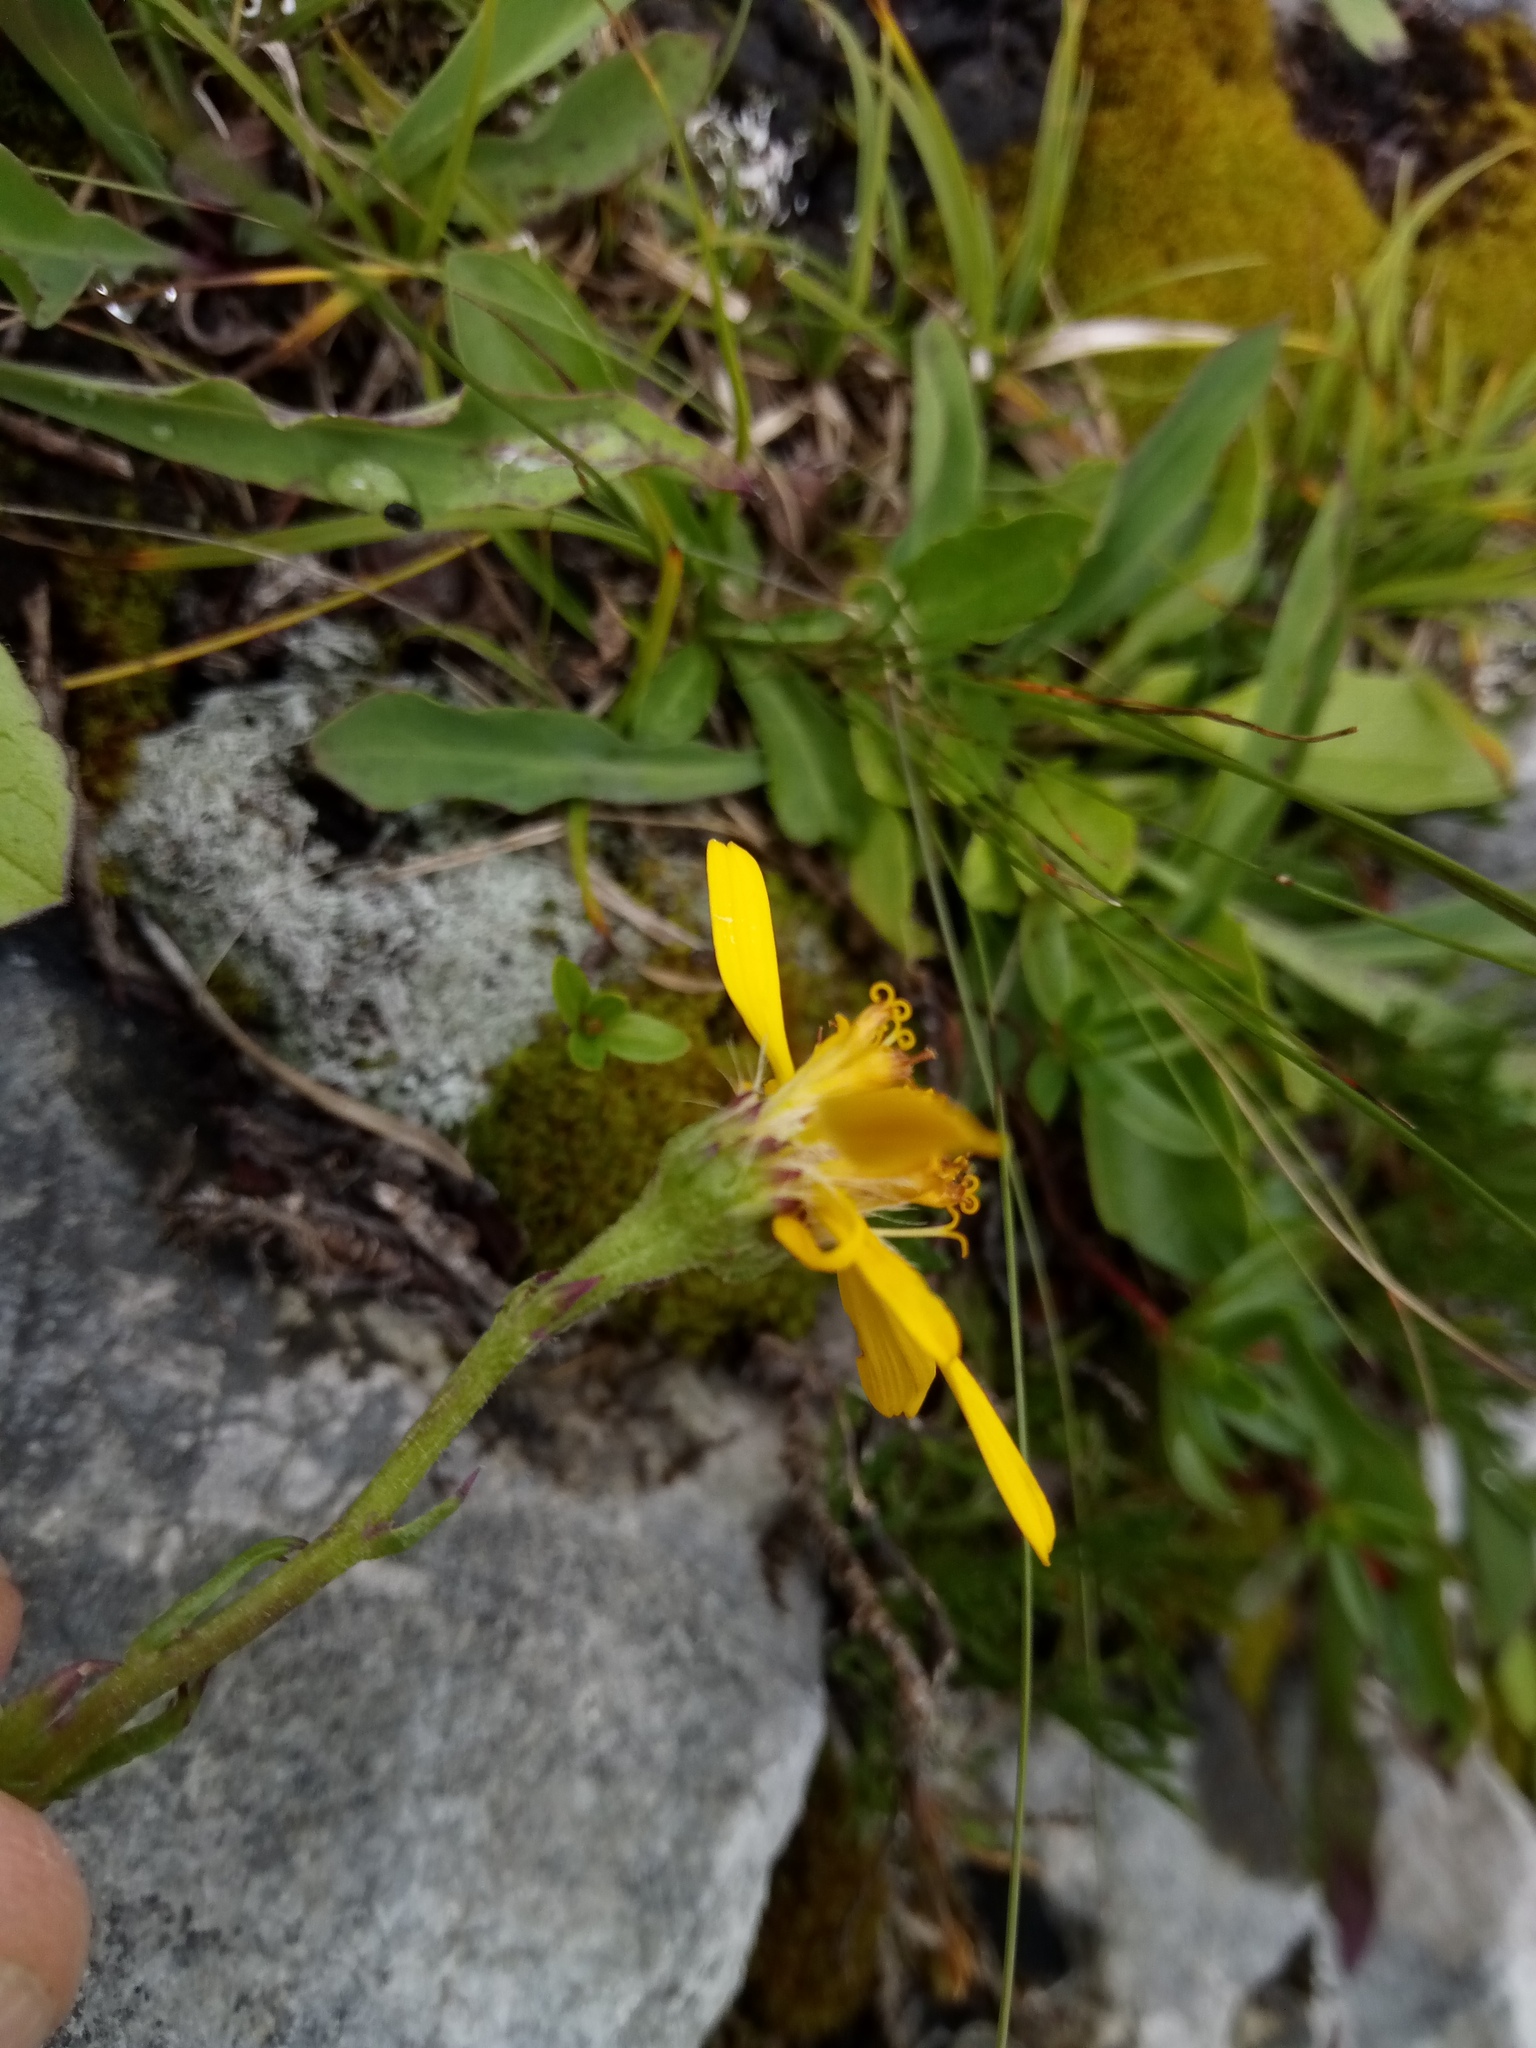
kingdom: Plantae
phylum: Tracheophyta
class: Magnoliopsida
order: Asterales
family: Asteraceae
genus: Jacobaea
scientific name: Jacobaea abrotanifolia
